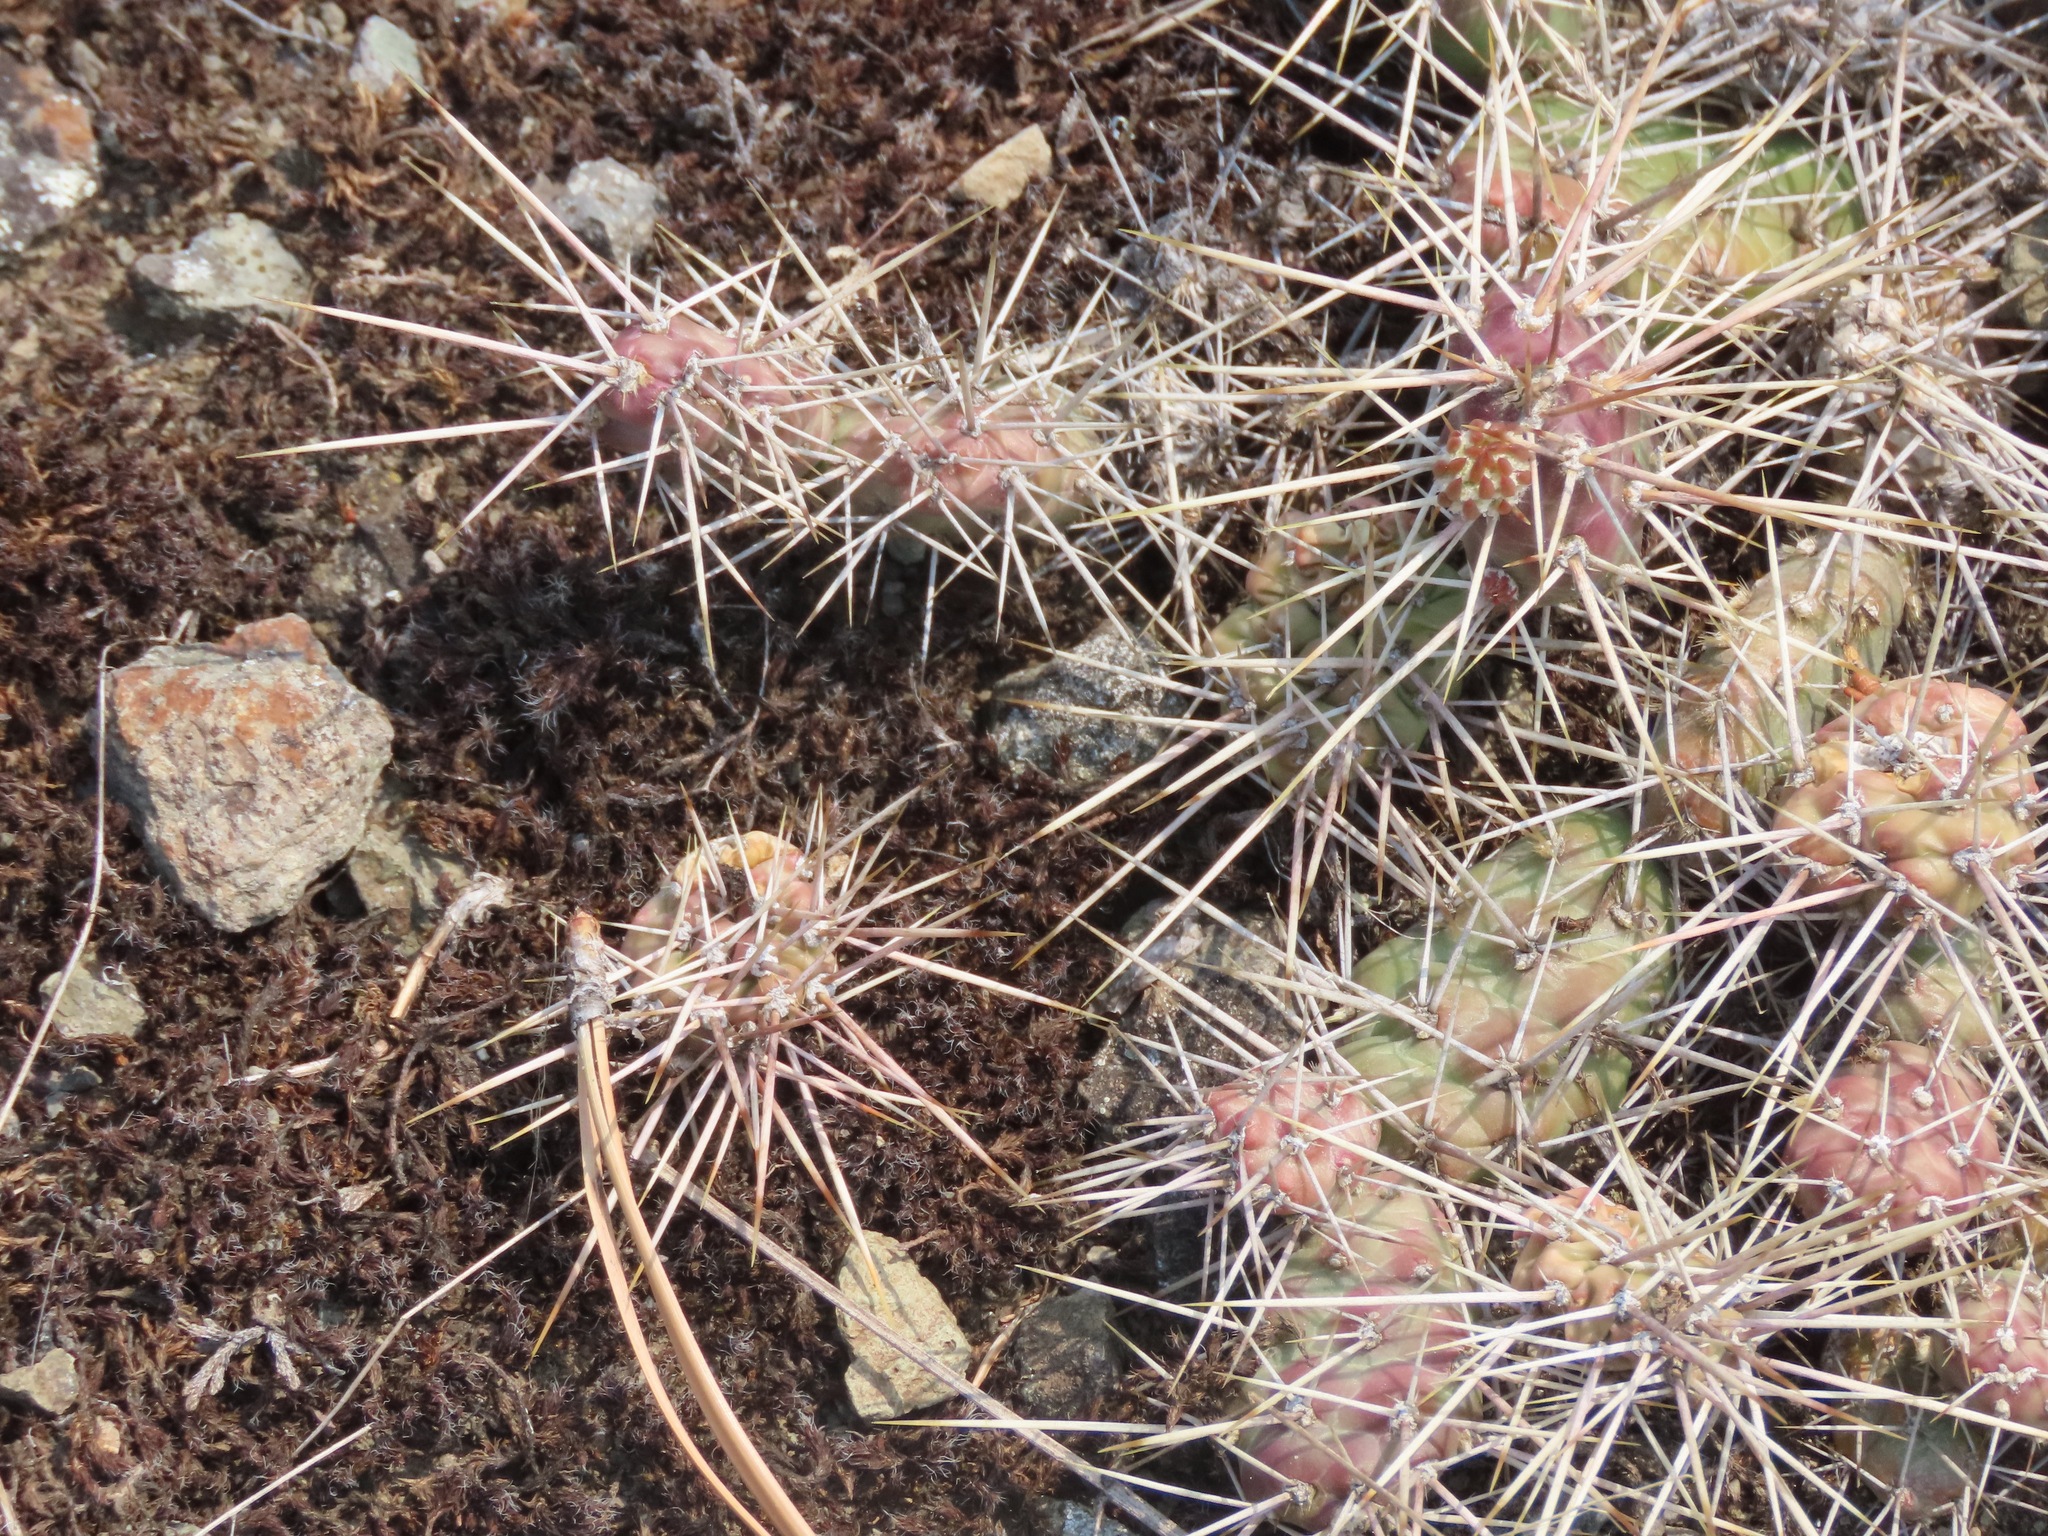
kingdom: Plantae
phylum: Tracheophyta
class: Magnoliopsida
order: Caryophyllales
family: Cactaceae
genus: Opuntia
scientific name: Opuntia fragilis
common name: Brittle cactus
